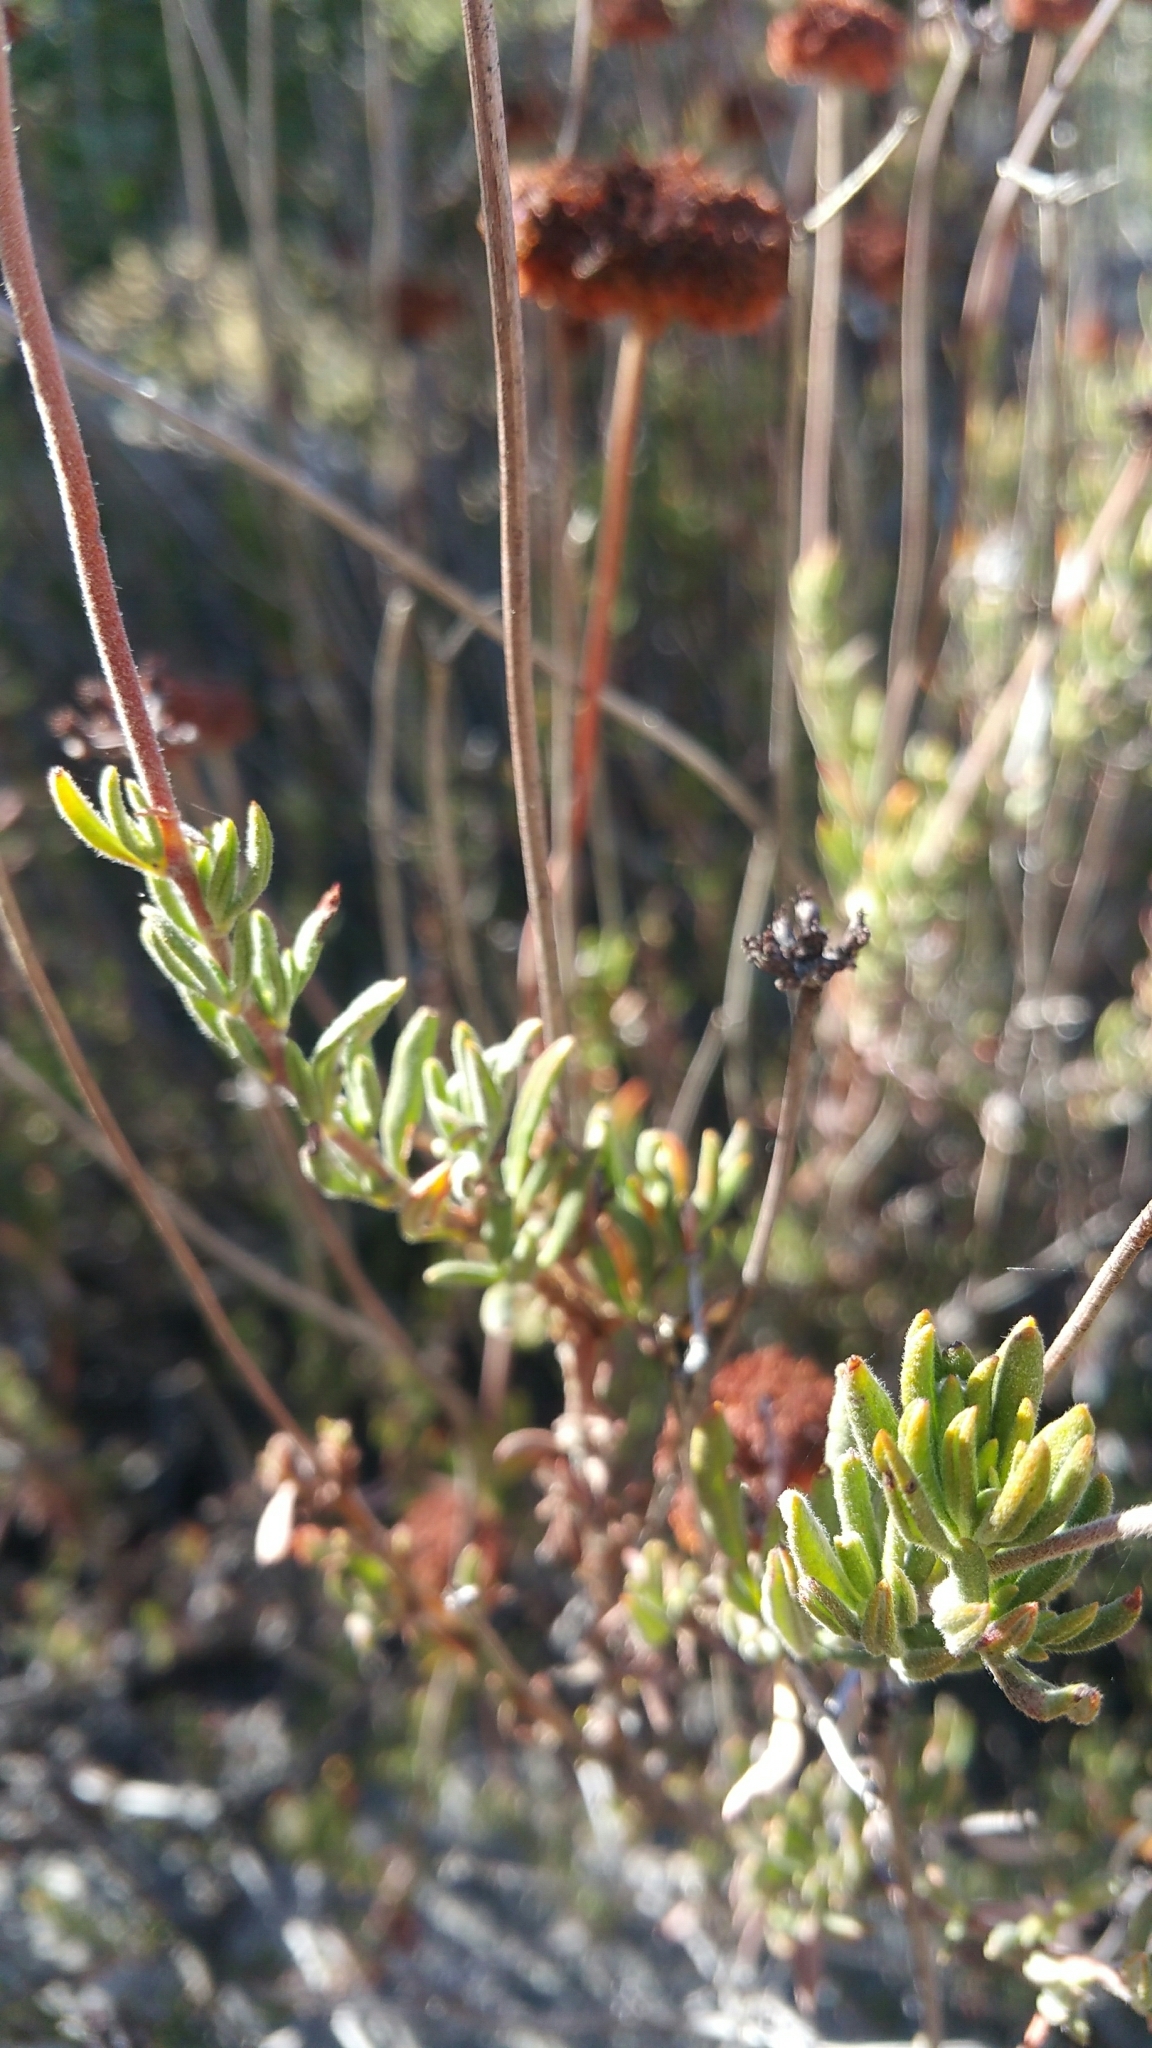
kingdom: Plantae
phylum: Tracheophyta
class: Magnoliopsida
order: Caryophyllales
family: Polygonaceae
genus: Eriogonum
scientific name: Eriogonum fasciculatum
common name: California wild buckwheat
